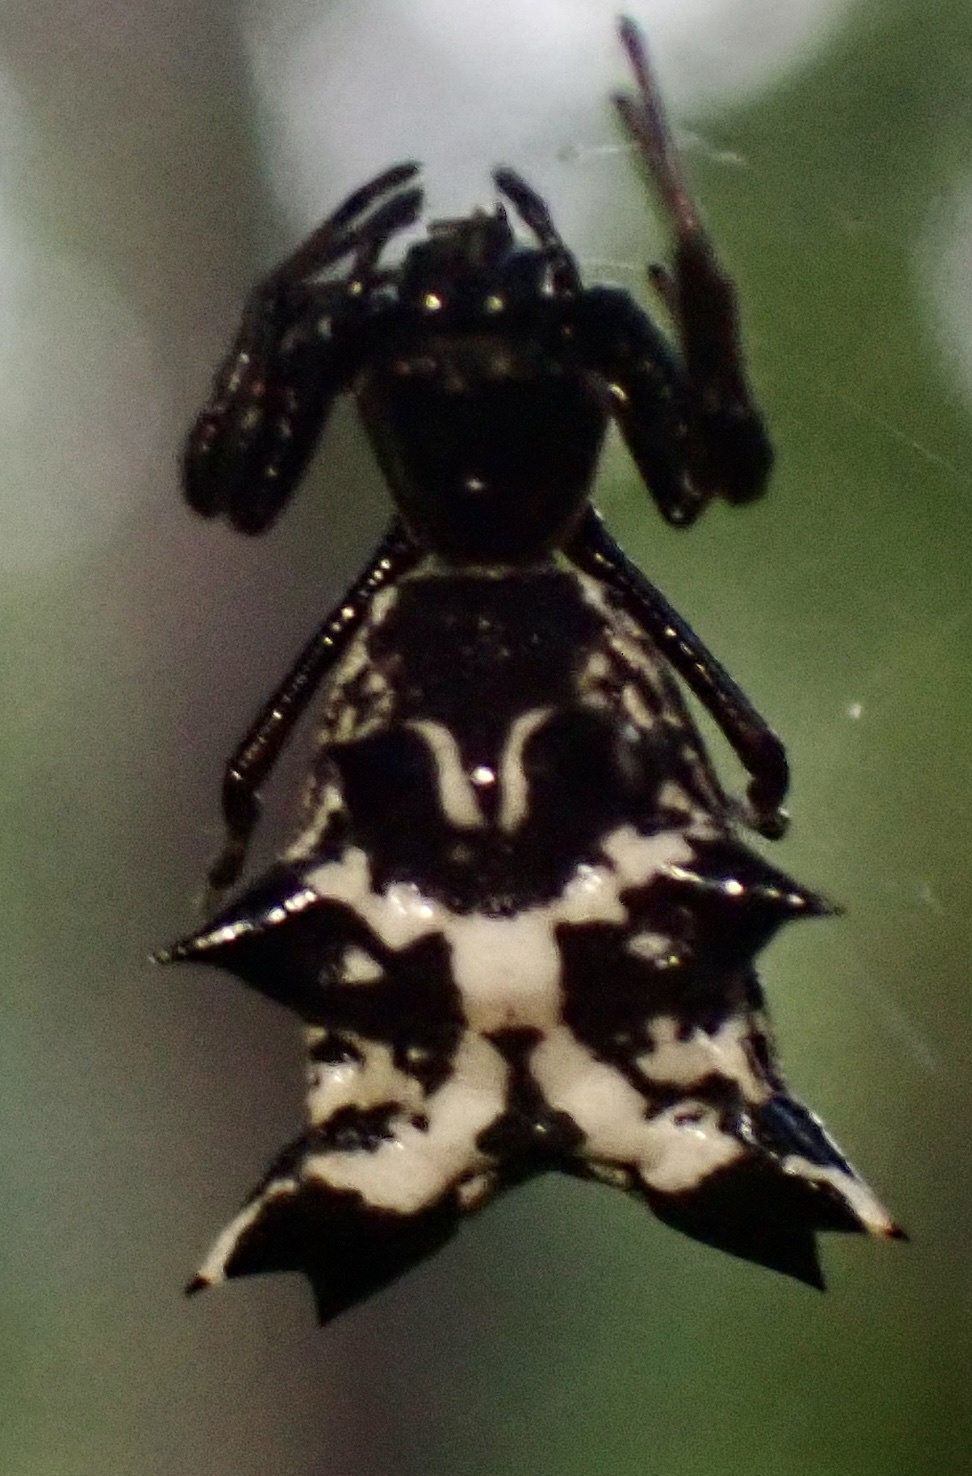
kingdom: Animalia
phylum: Arthropoda
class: Arachnida
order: Araneae
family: Araneidae
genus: Micrathena
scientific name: Micrathena gracilis
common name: Orb weavers
